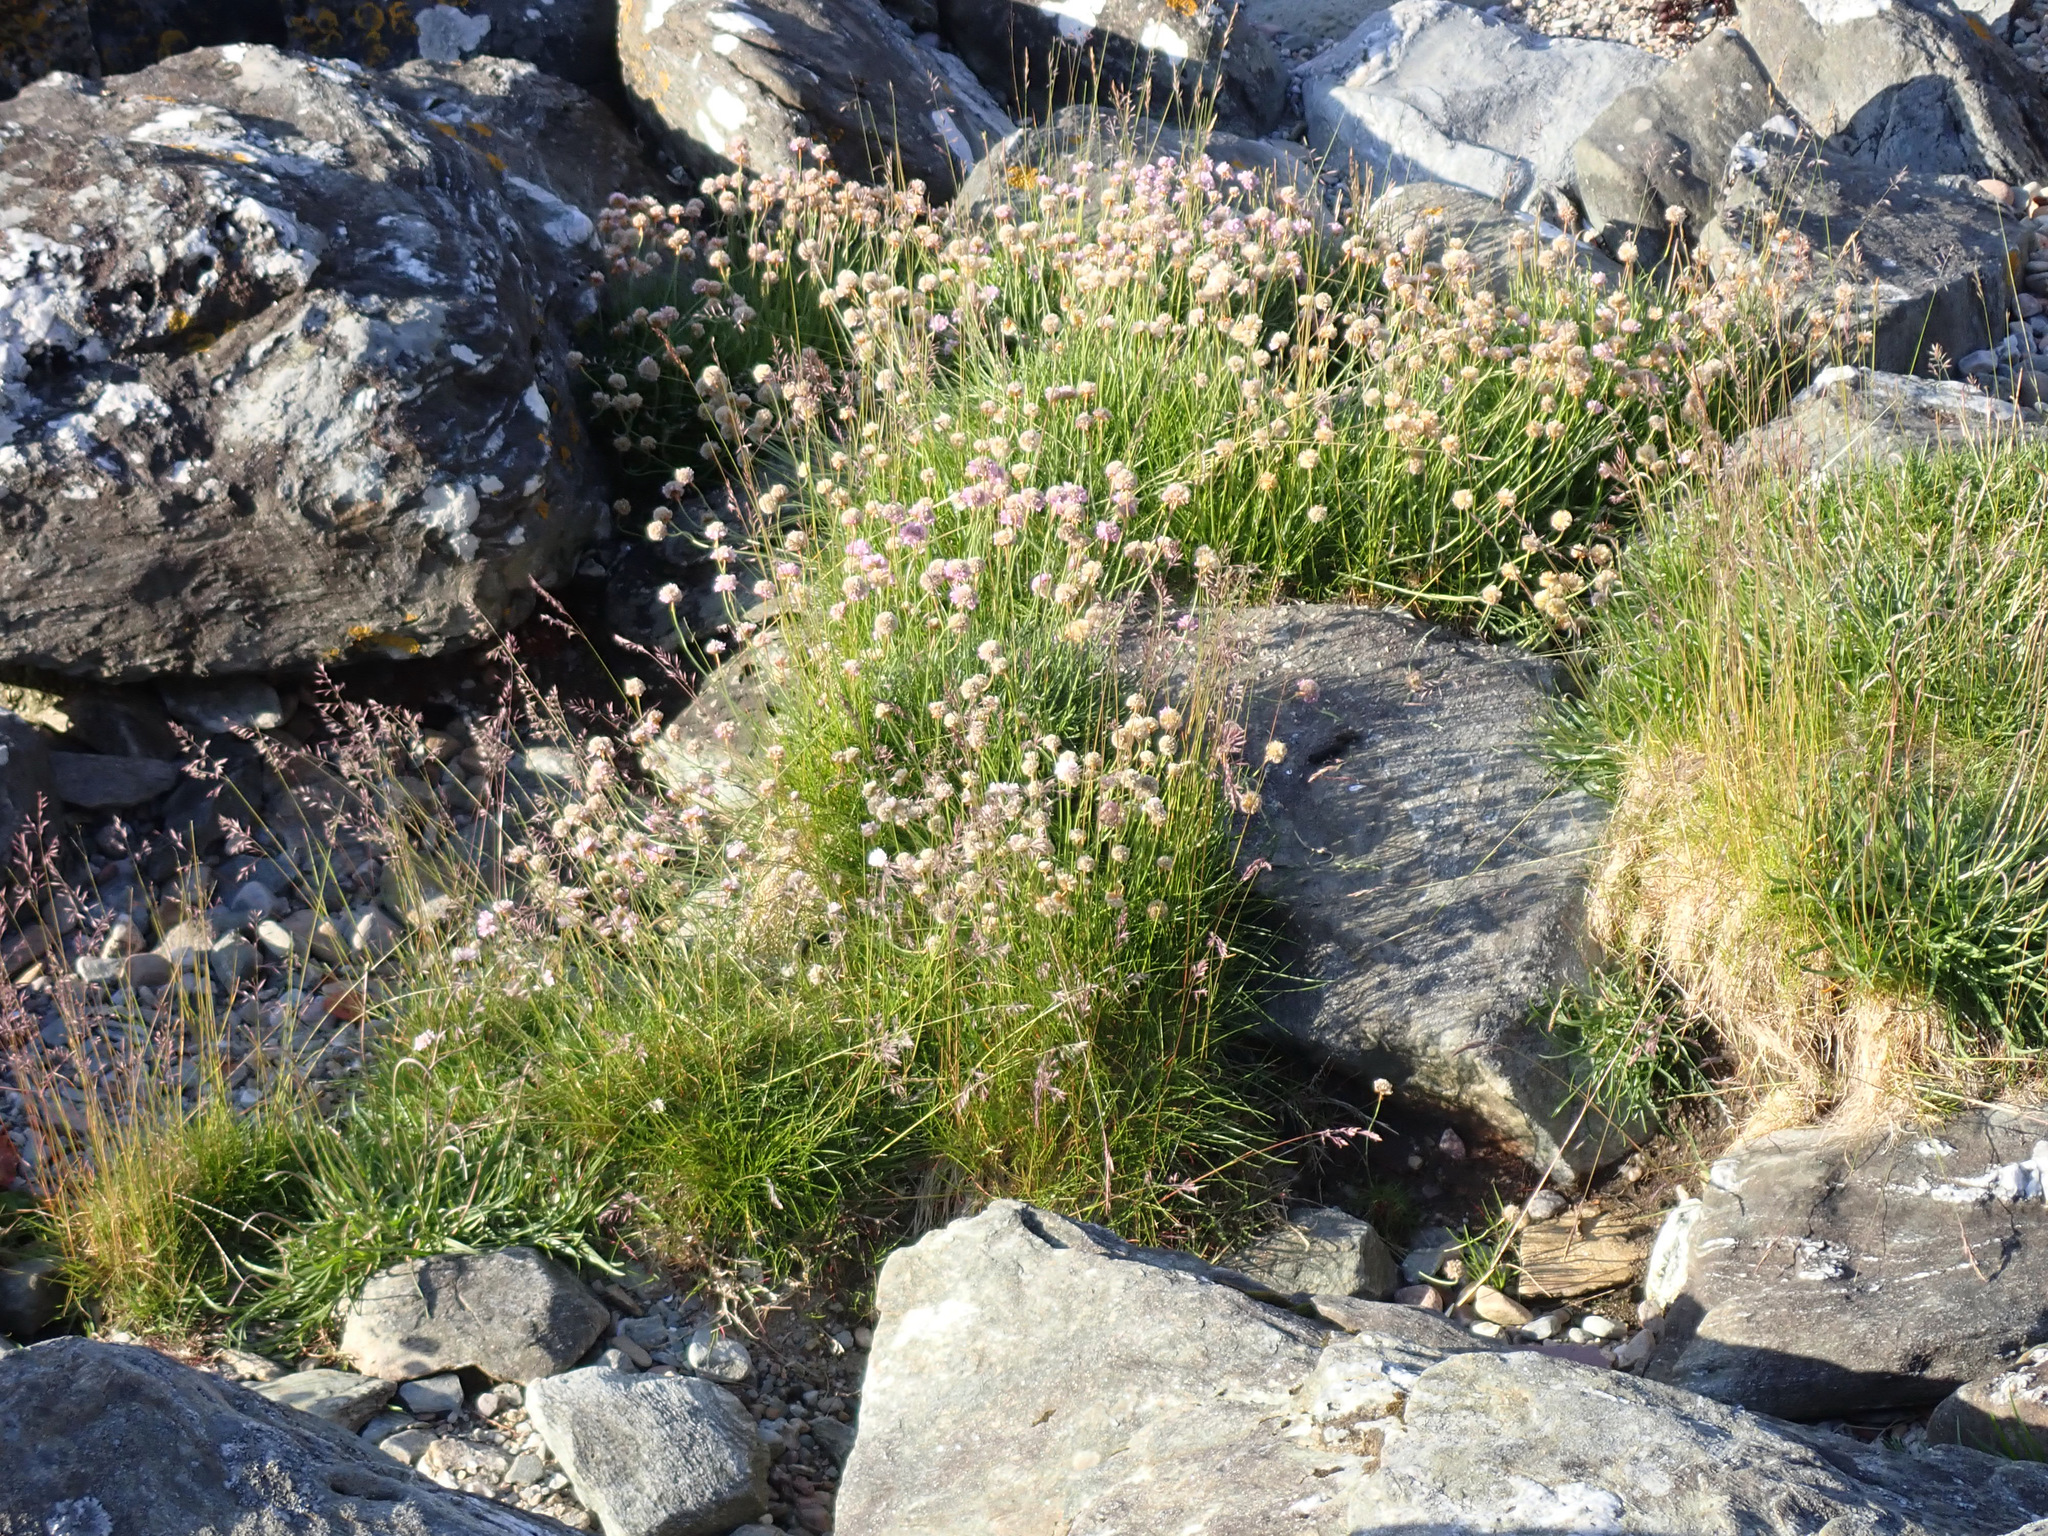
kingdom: Plantae
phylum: Tracheophyta
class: Magnoliopsida
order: Caryophyllales
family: Plumbaginaceae
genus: Armeria
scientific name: Armeria maritima
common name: Thrift
